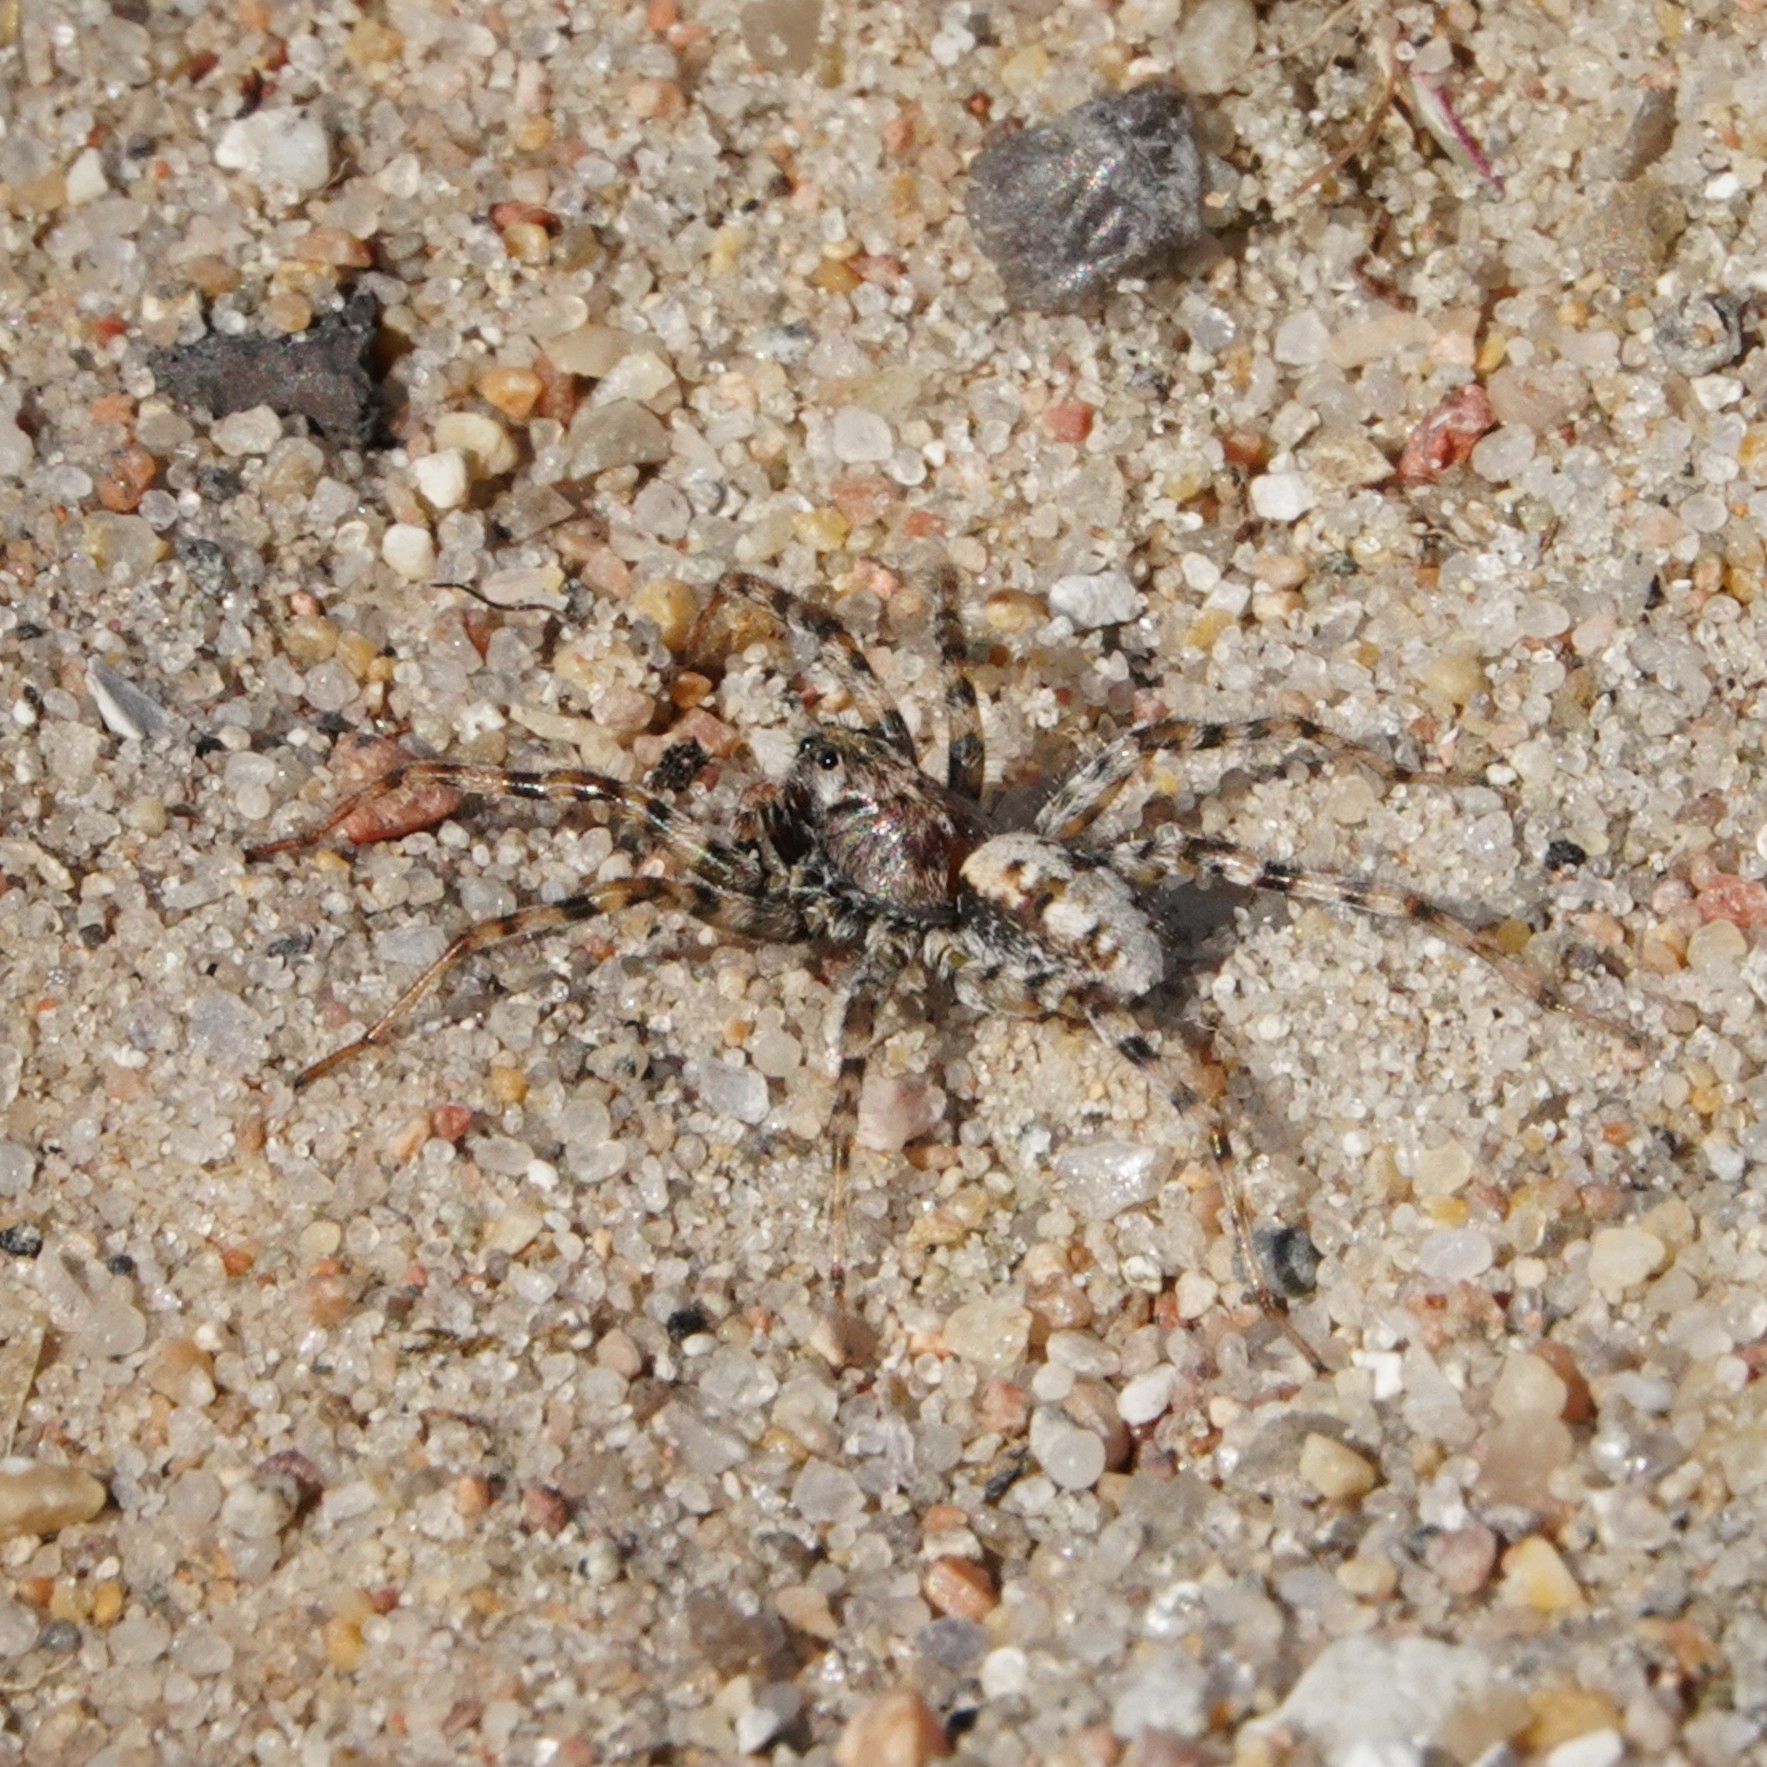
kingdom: Animalia
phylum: Arthropoda
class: Arachnida
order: Araneae
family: Lycosidae
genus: Arctosa
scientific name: Arctosa perita
